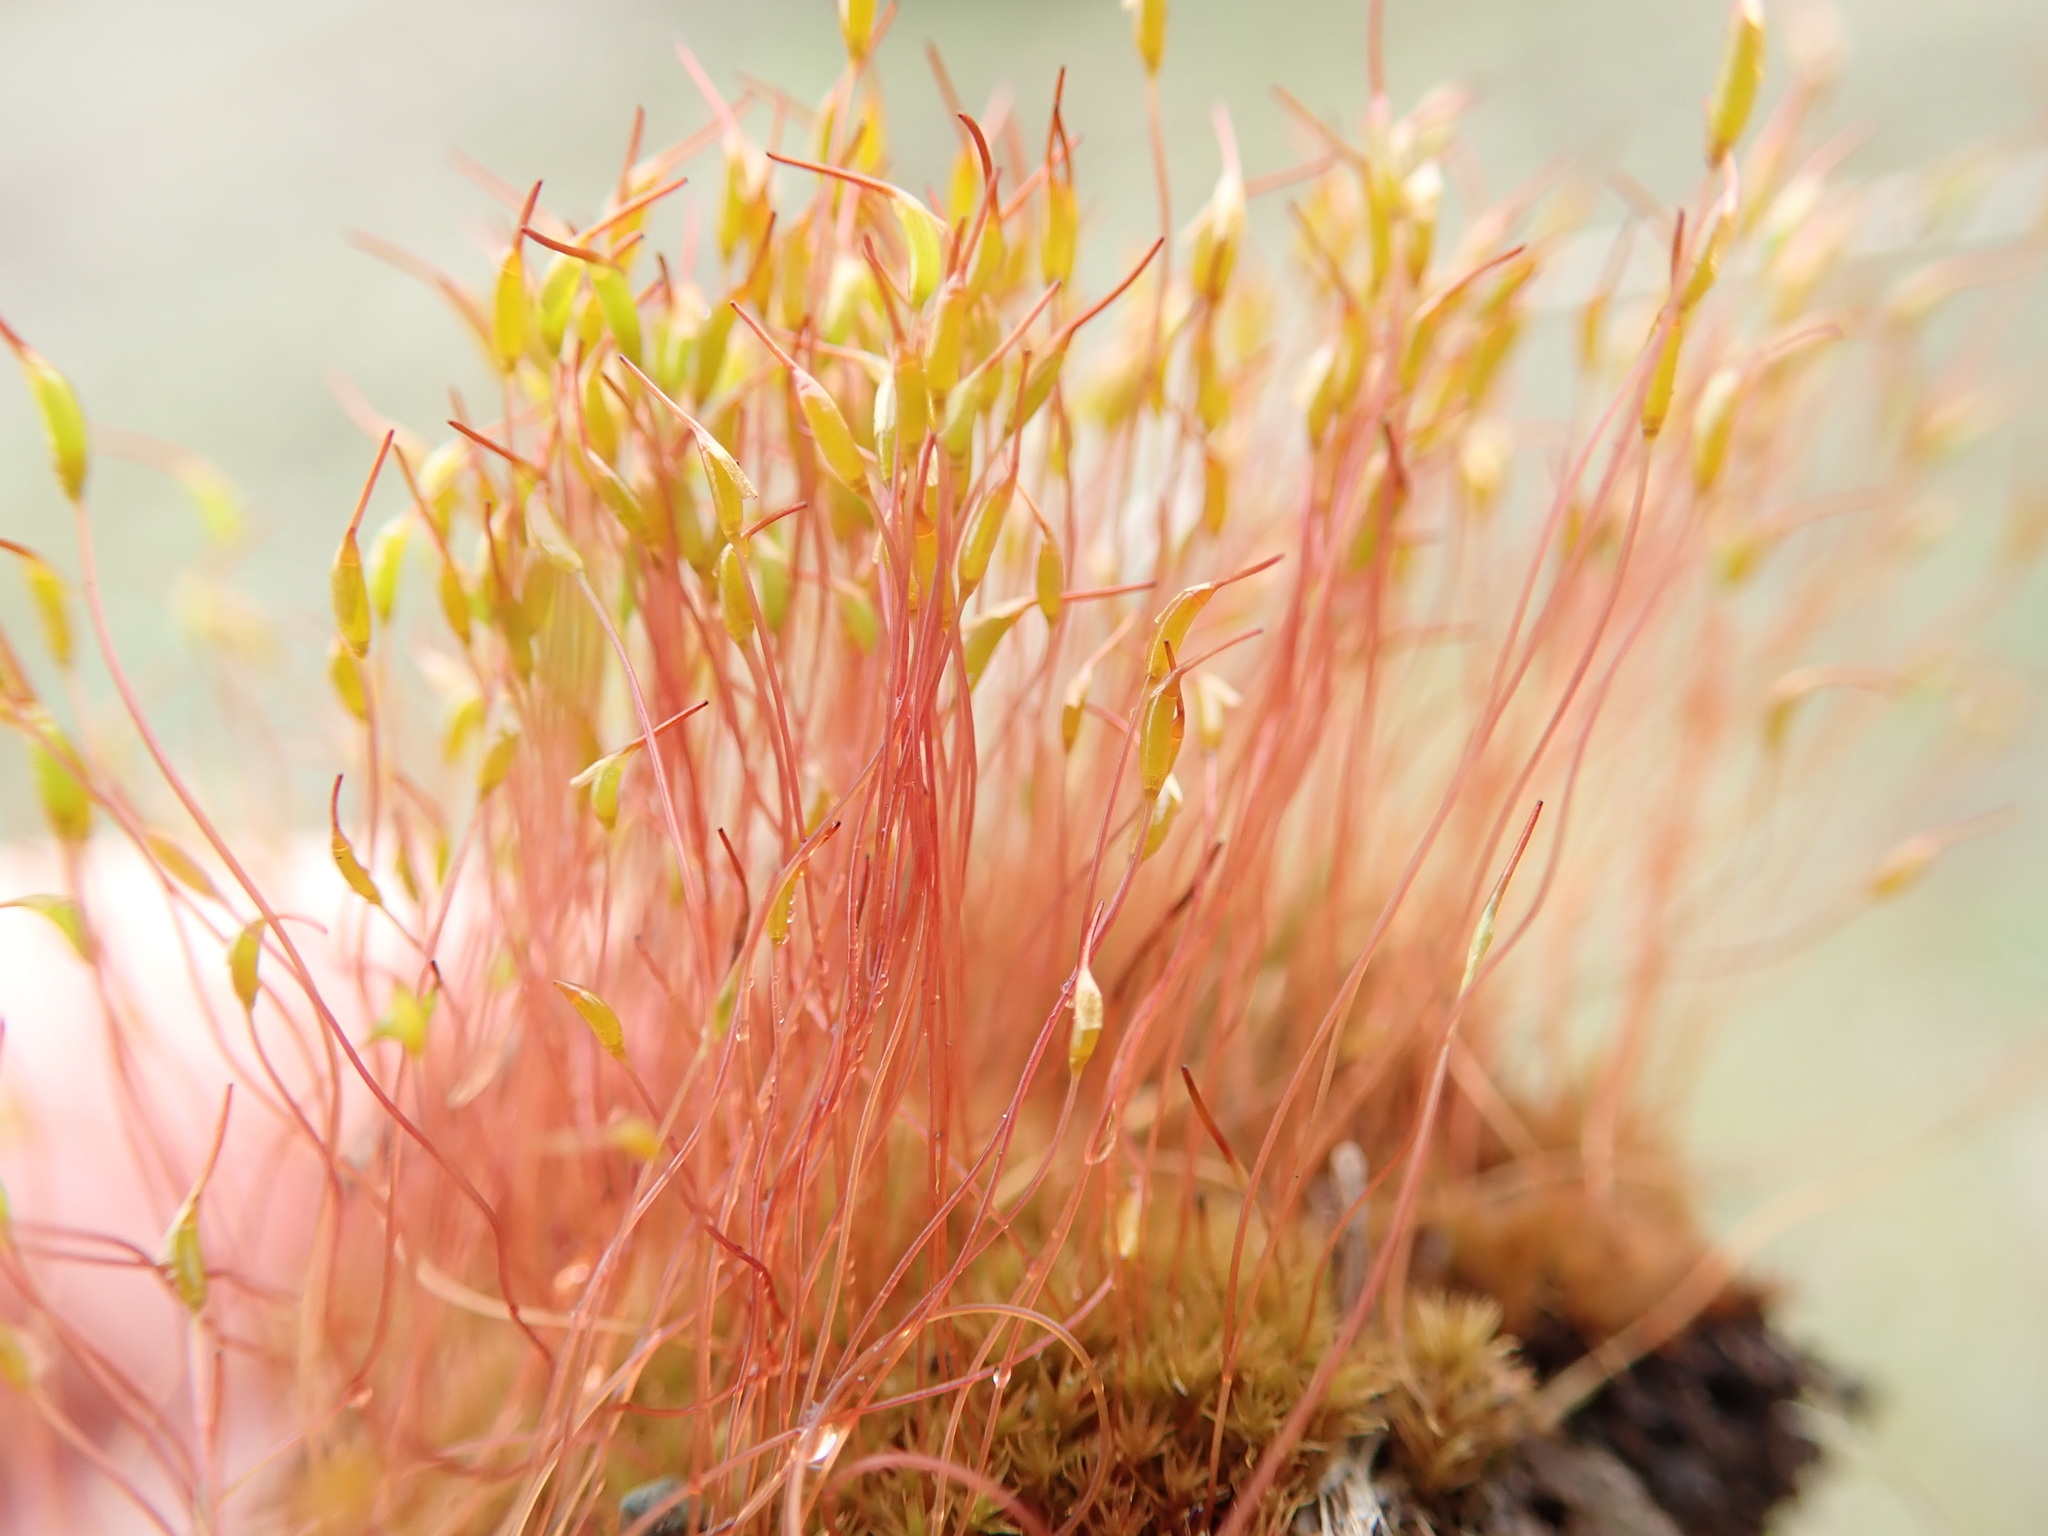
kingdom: Plantae
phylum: Bryophyta
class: Bryopsida
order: Dicranales
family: Ditrichaceae
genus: Ceratodon
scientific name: Ceratodon purpureus
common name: Redshank
